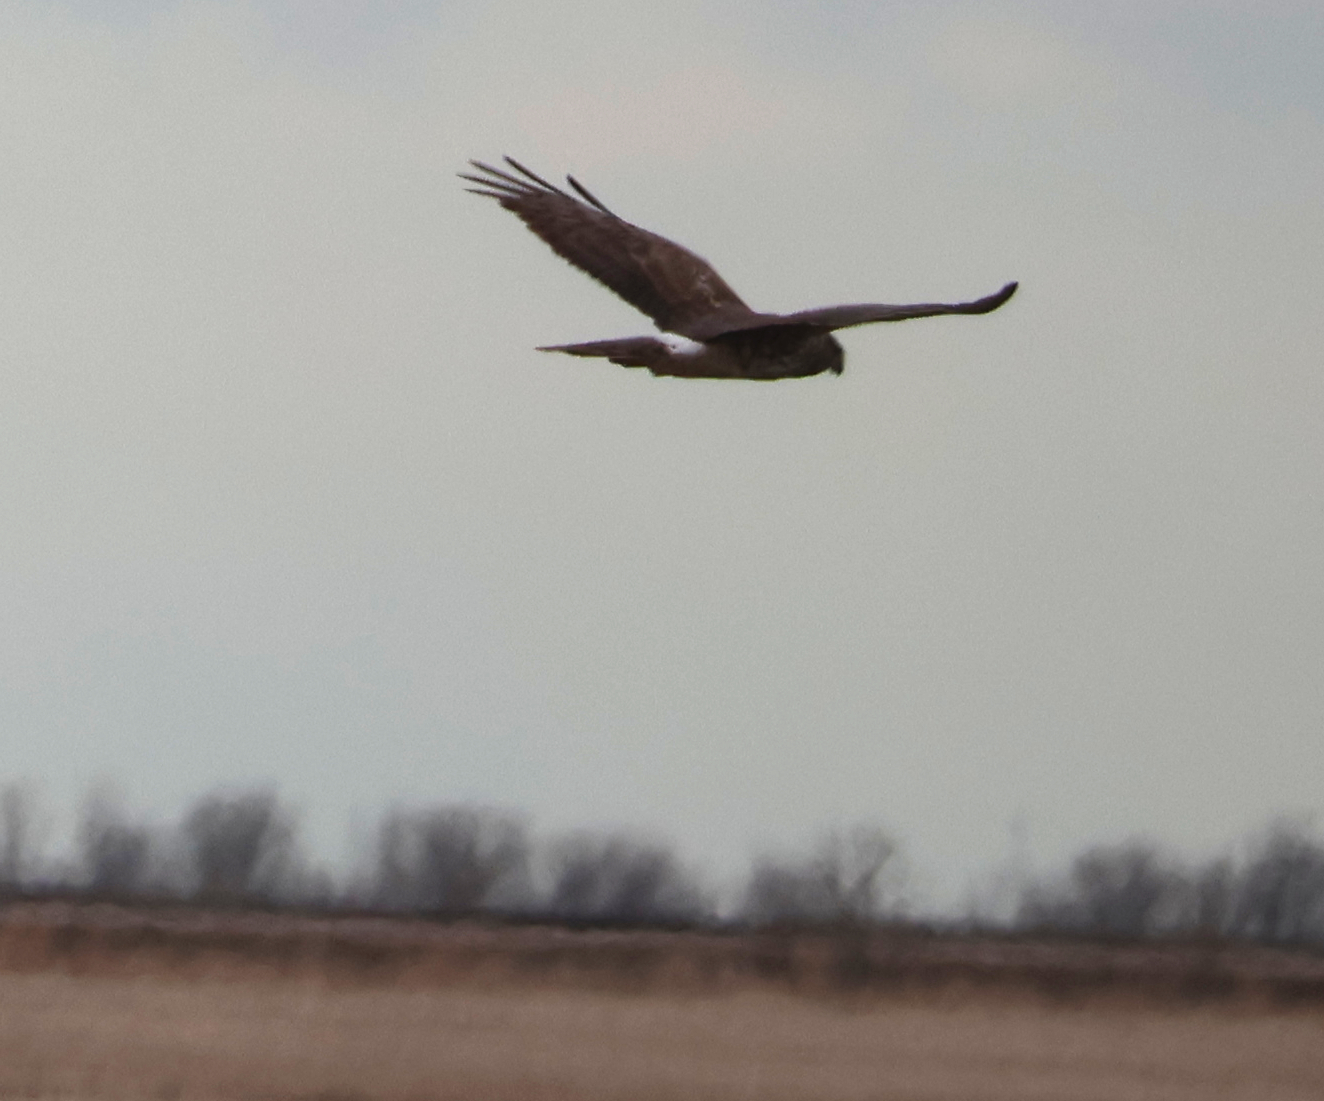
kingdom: Animalia
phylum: Chordata
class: Aves
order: Accipitriformes
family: Accipitridae
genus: Circus
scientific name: Circus cyaneus
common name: Hen harrier
